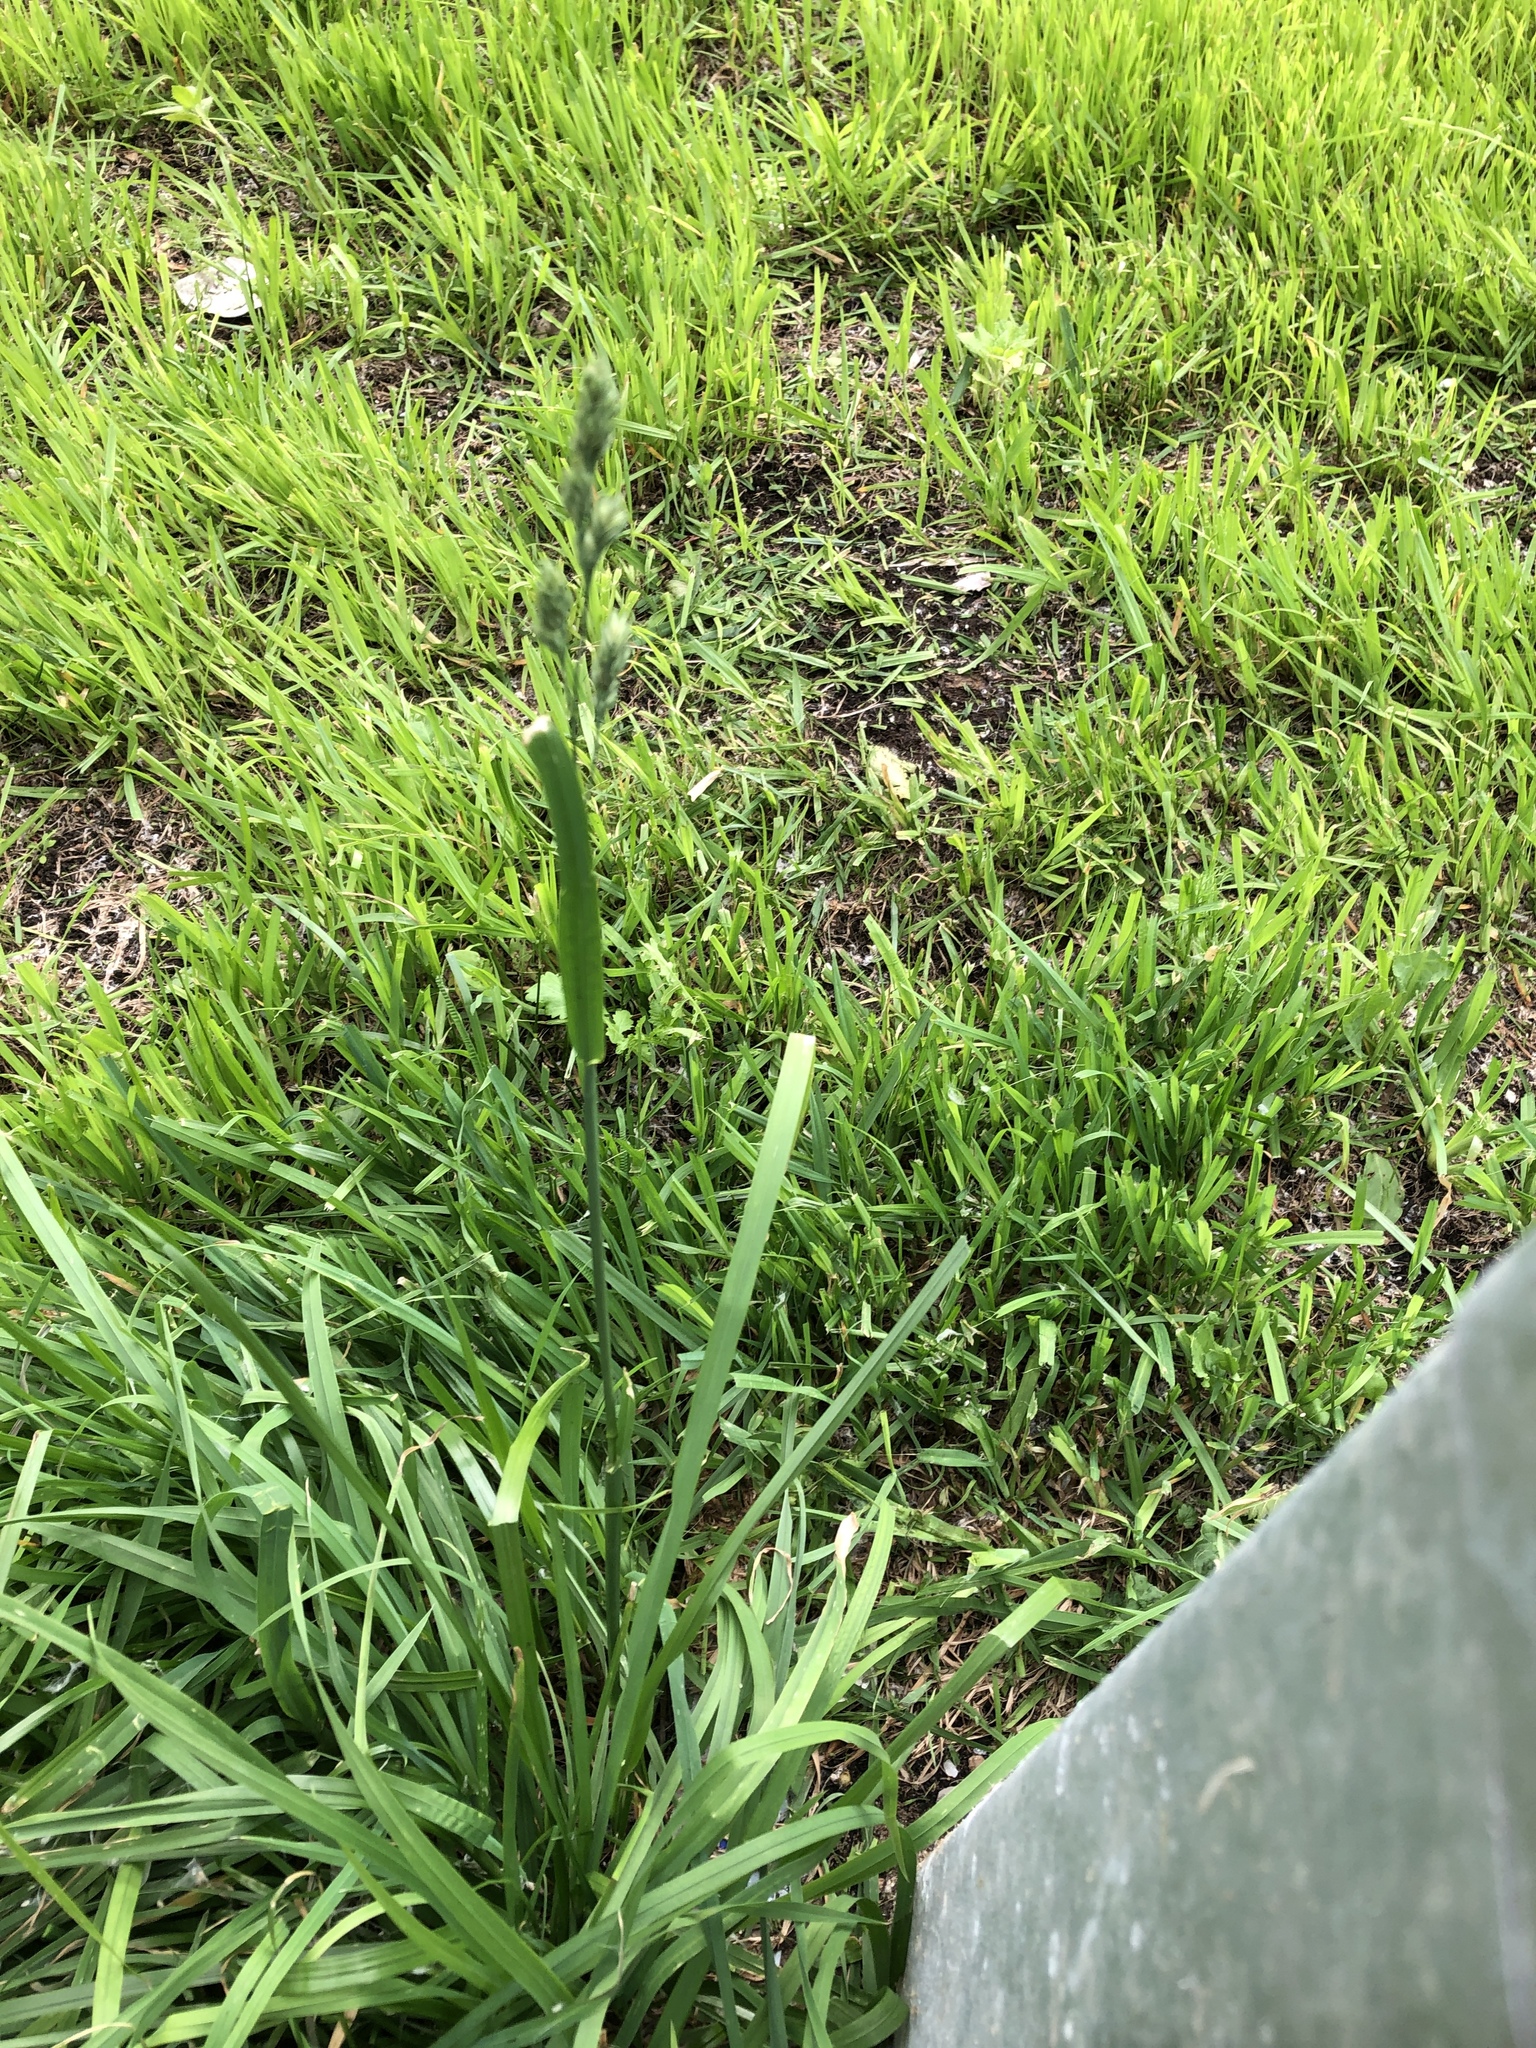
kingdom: Plantae
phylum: Tracheophyta
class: Liliopsida
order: Poales
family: Poaceae
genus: Dactylis
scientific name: Dactylis glomerata
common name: Orchardgrass
